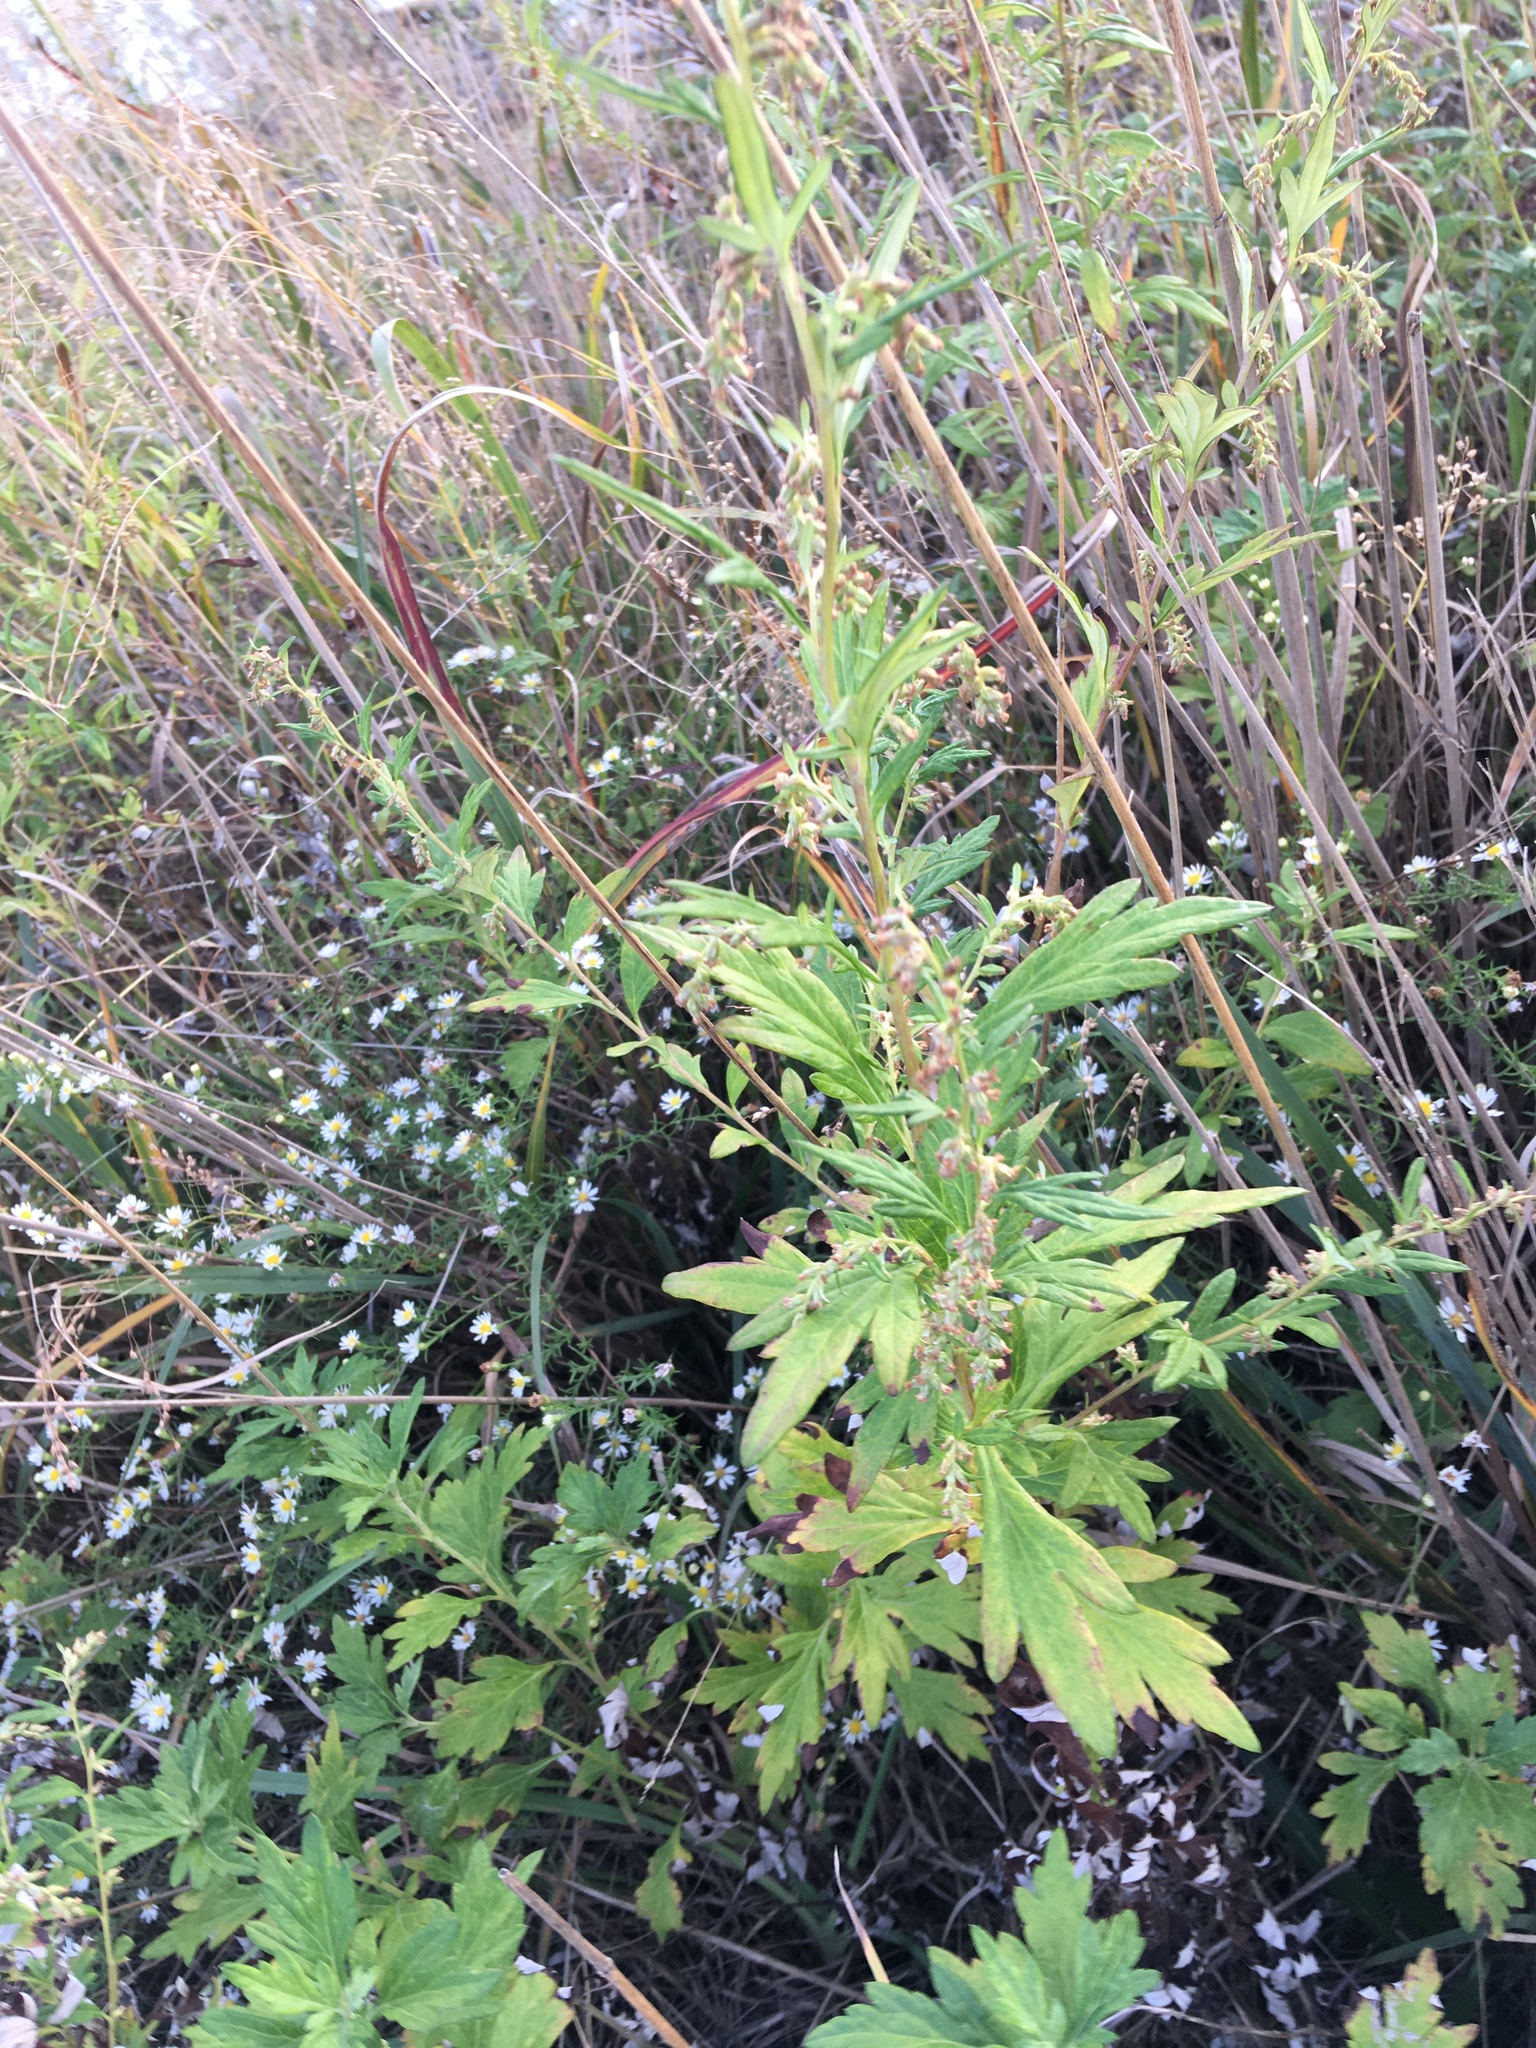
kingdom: Plantae
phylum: Tracheophyta
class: Magnoliopsida
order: Asterales
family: Asteraceae
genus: Artemisia
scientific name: Artemisia vulgaris
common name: Mugwort
